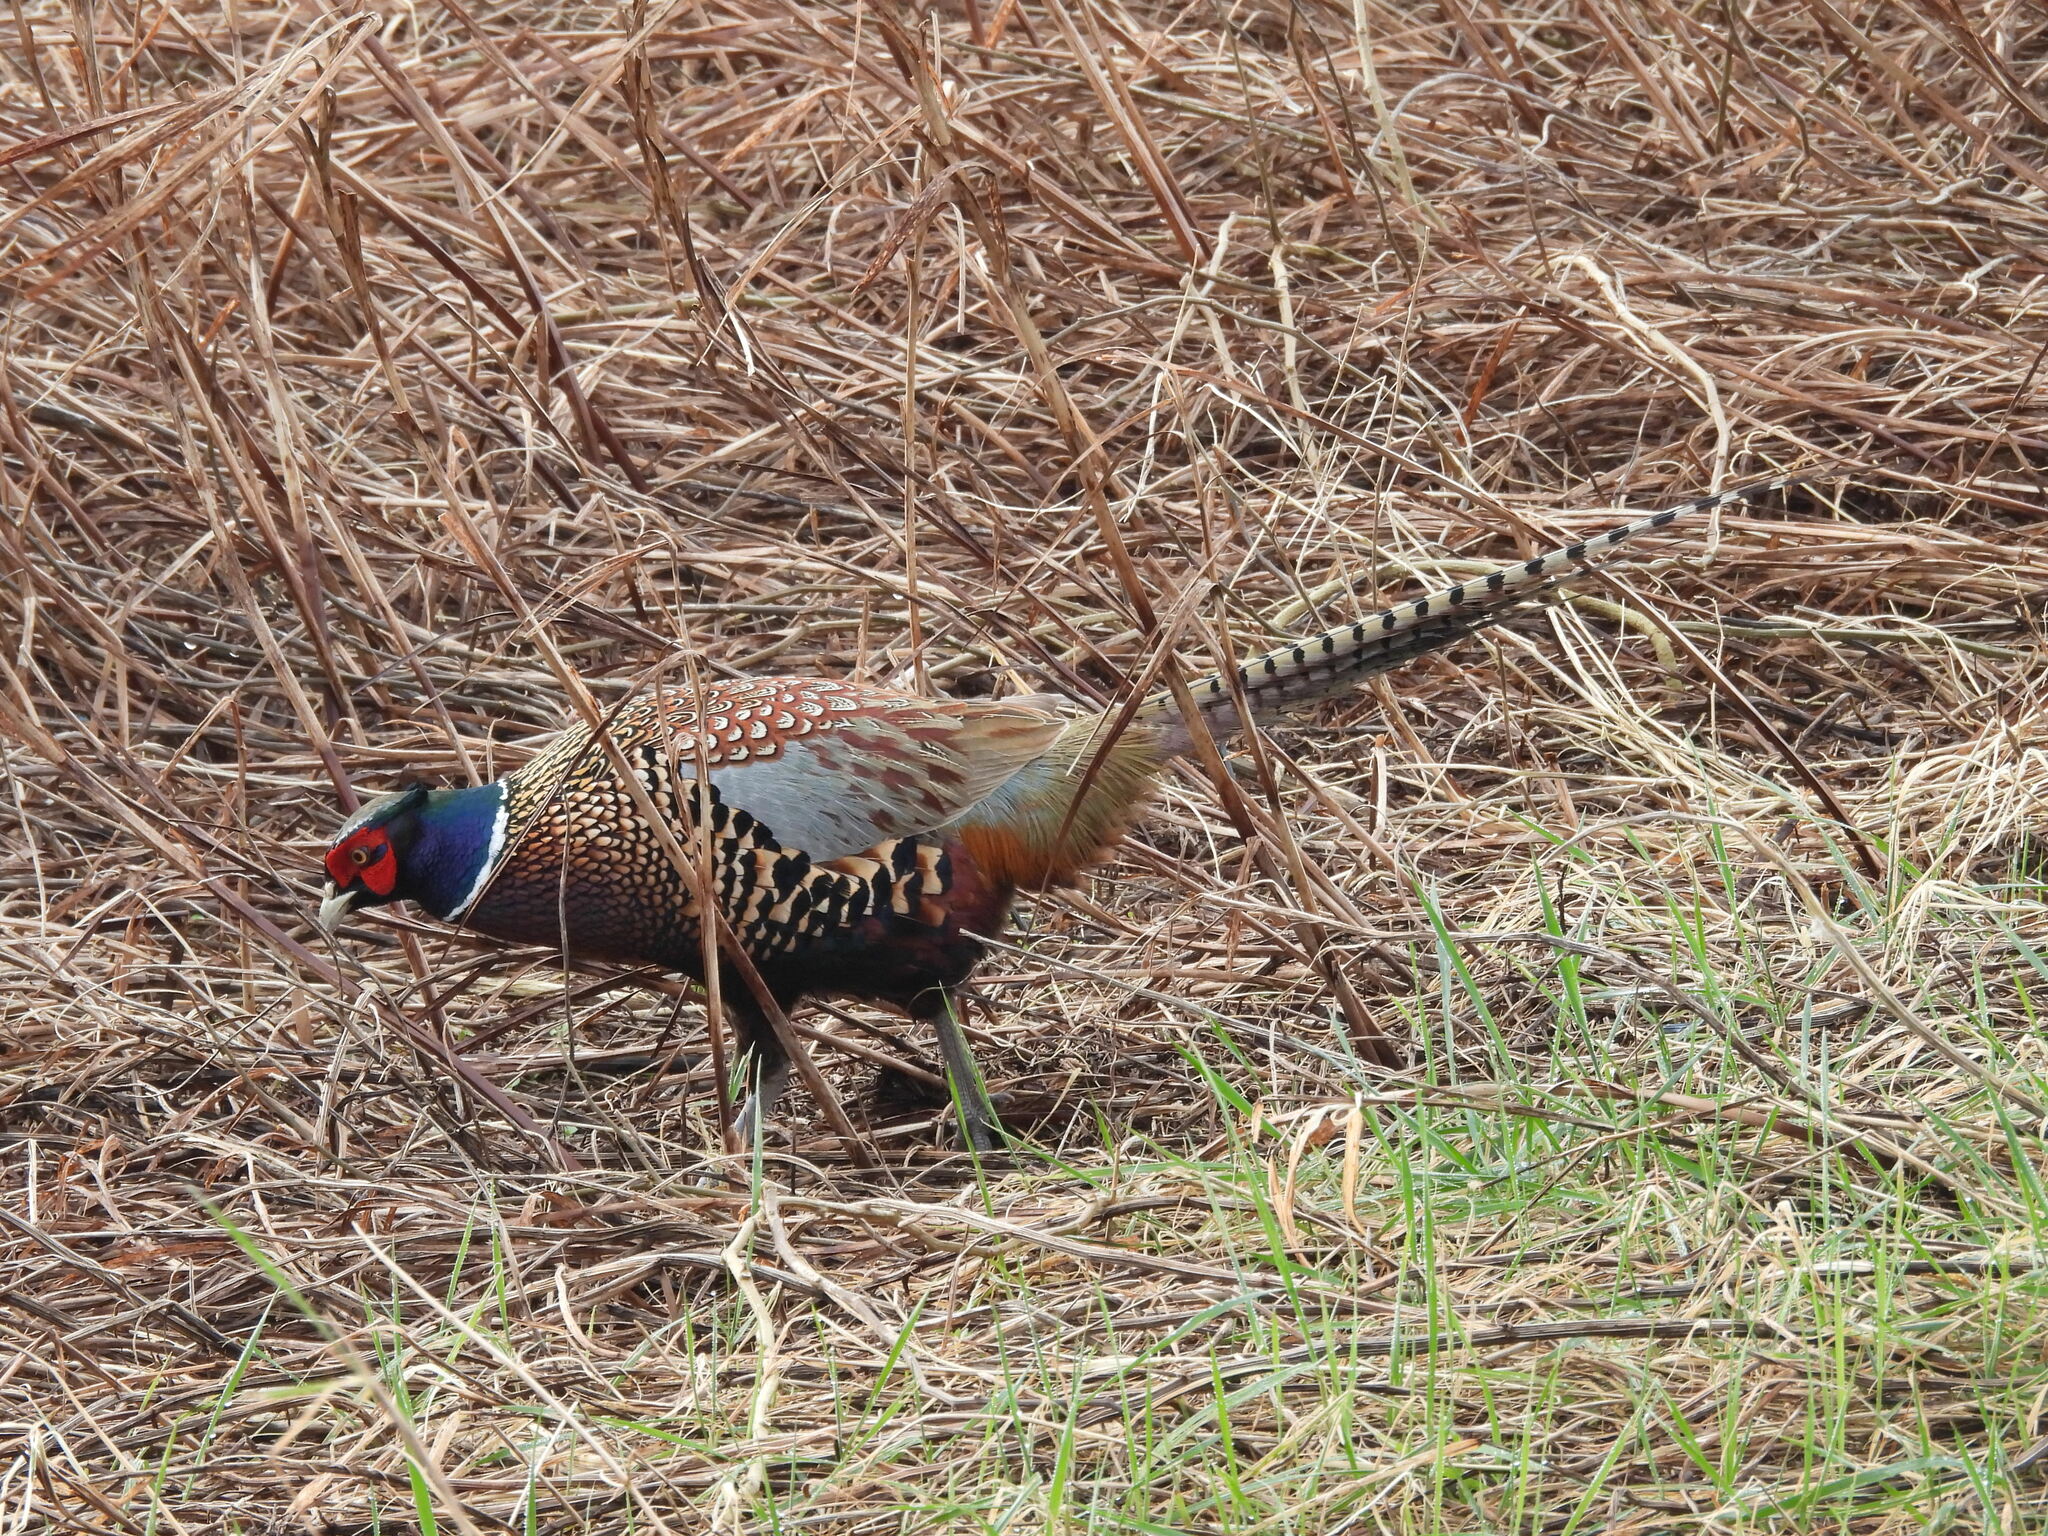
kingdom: Animalia
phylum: Chordata
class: Aves
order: Galliformes
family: Phasianidae
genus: Phasianus
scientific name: Phasianus colchicus
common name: Common pheasant
